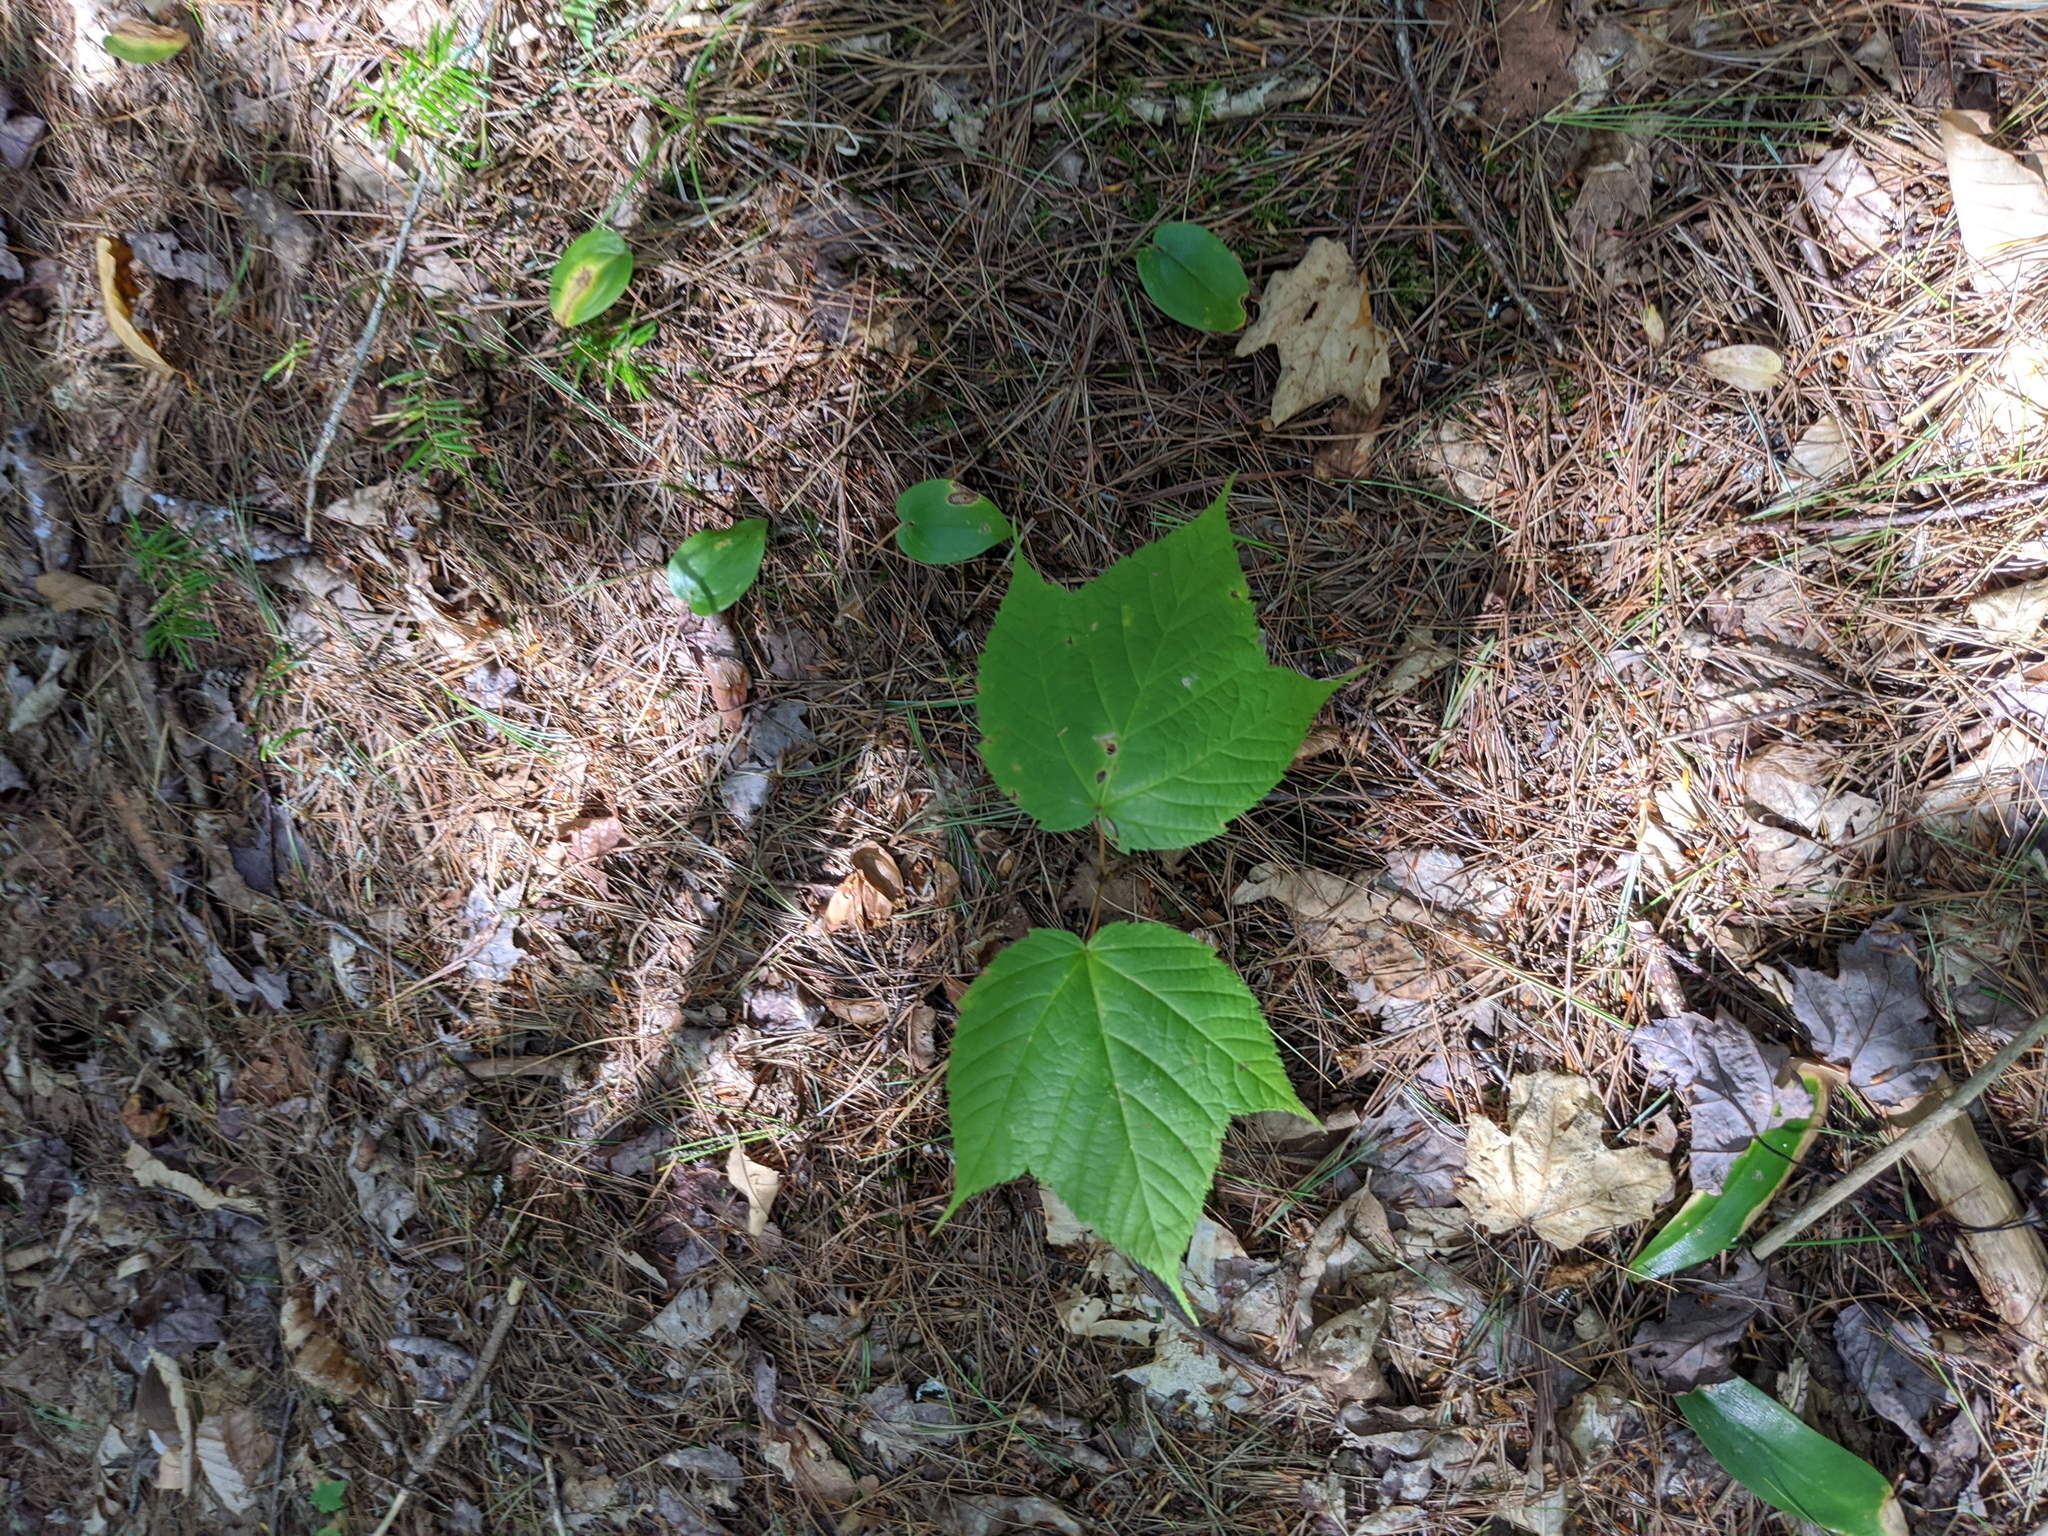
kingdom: Plantae
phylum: Tracheophyta
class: Liliopsida
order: Asparagales
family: Asparagaceae
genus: Maianthemum
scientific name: Maianthemum canadense
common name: False lily-of-the-valley
